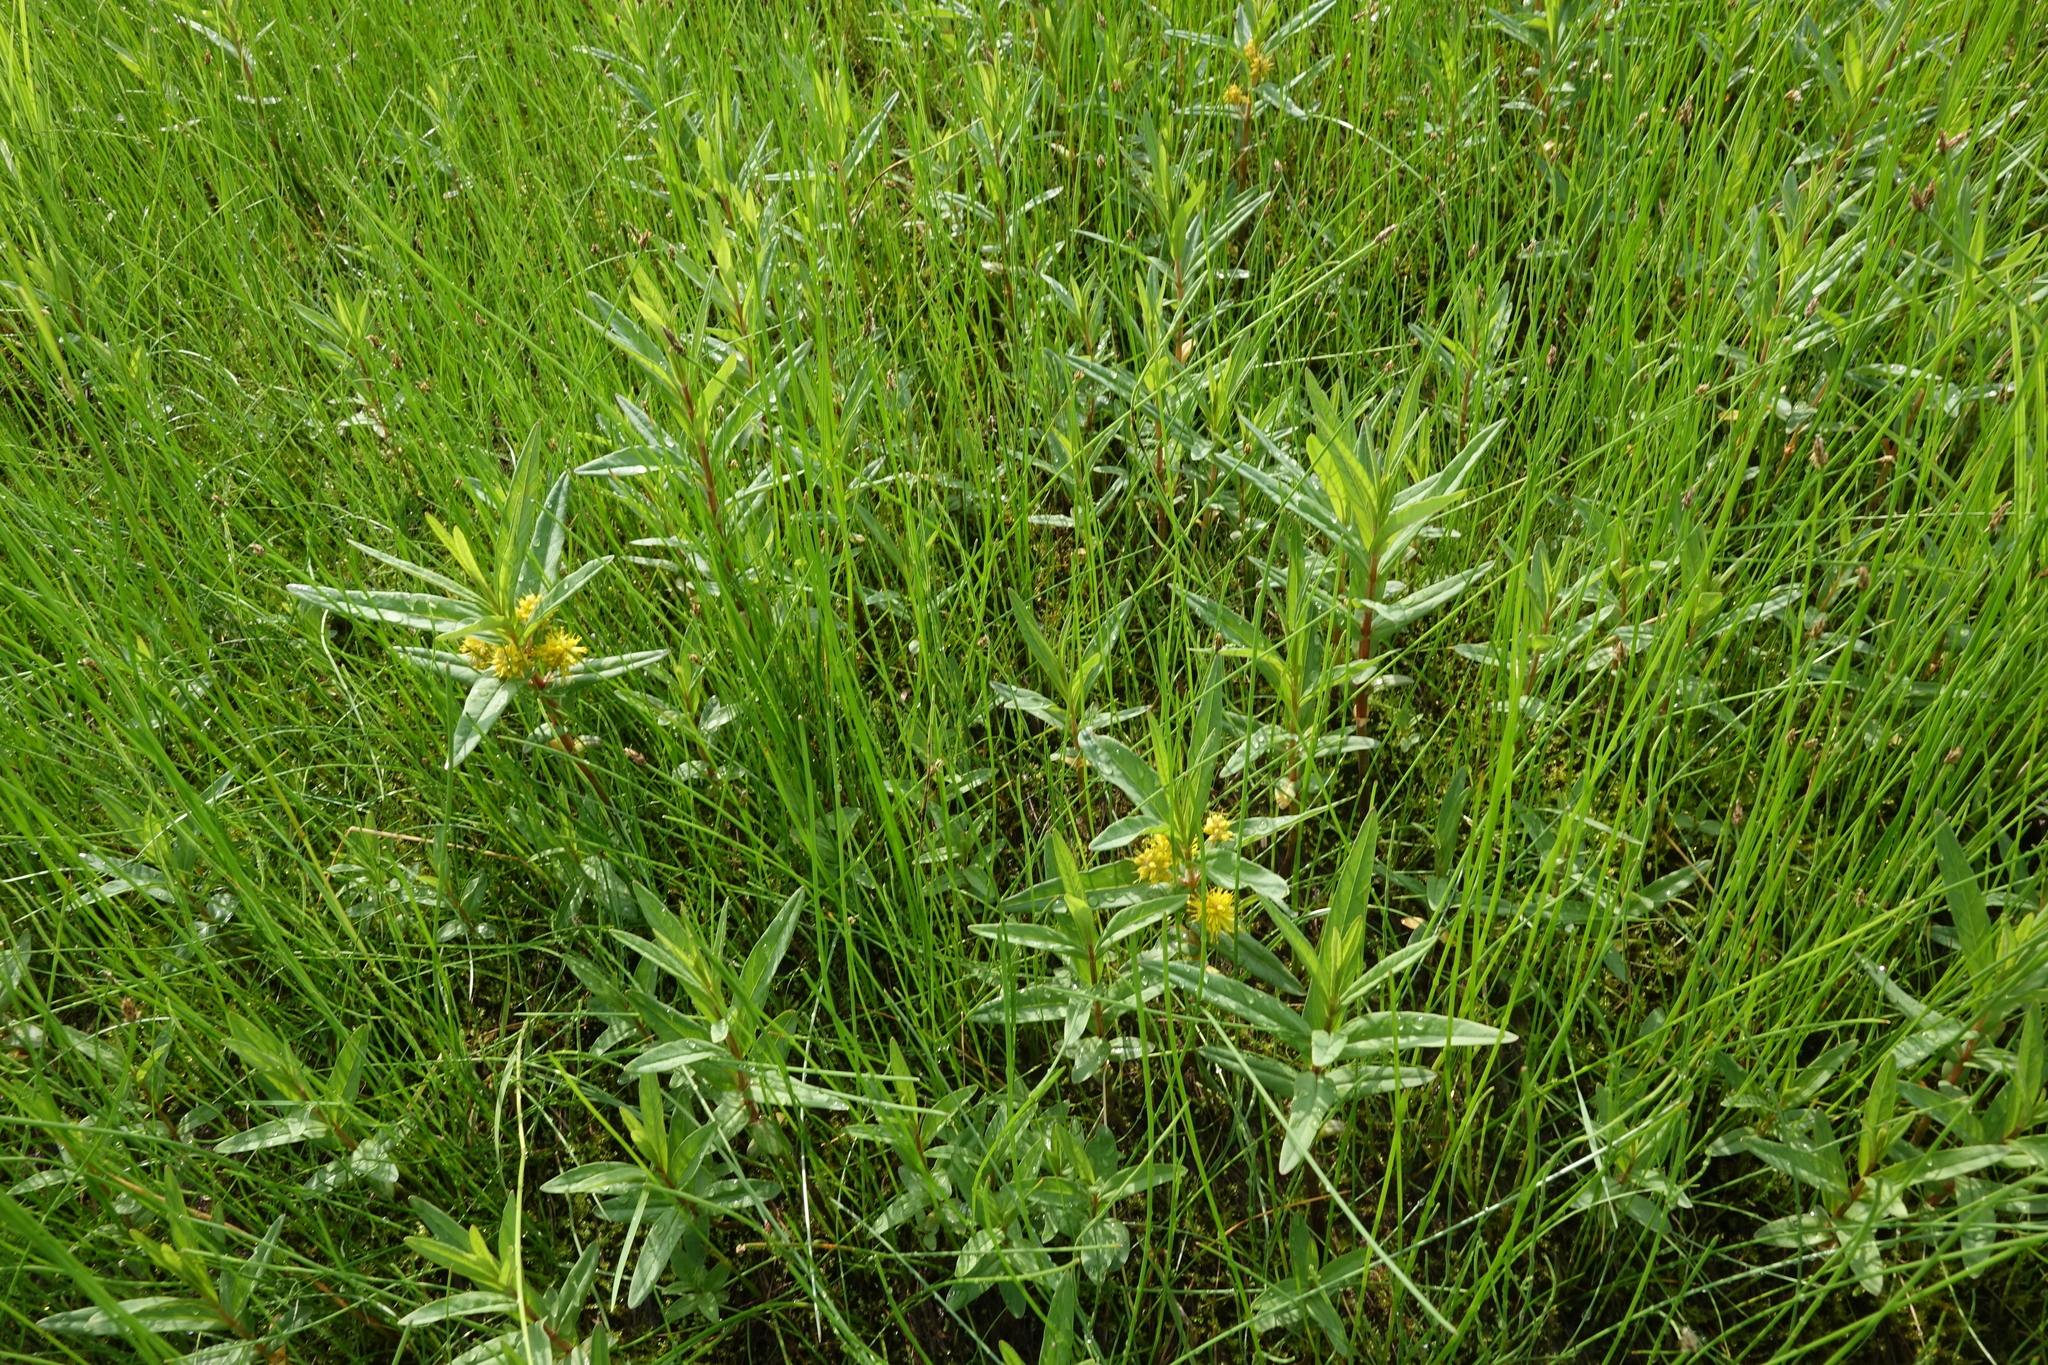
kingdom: Plantae
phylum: Tracheophyta
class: Magnoliopsida
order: Ericales
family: Primulaceae
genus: Lysimachia
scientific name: Lysimachia thyrsiflora
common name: Tufted loosestrife
